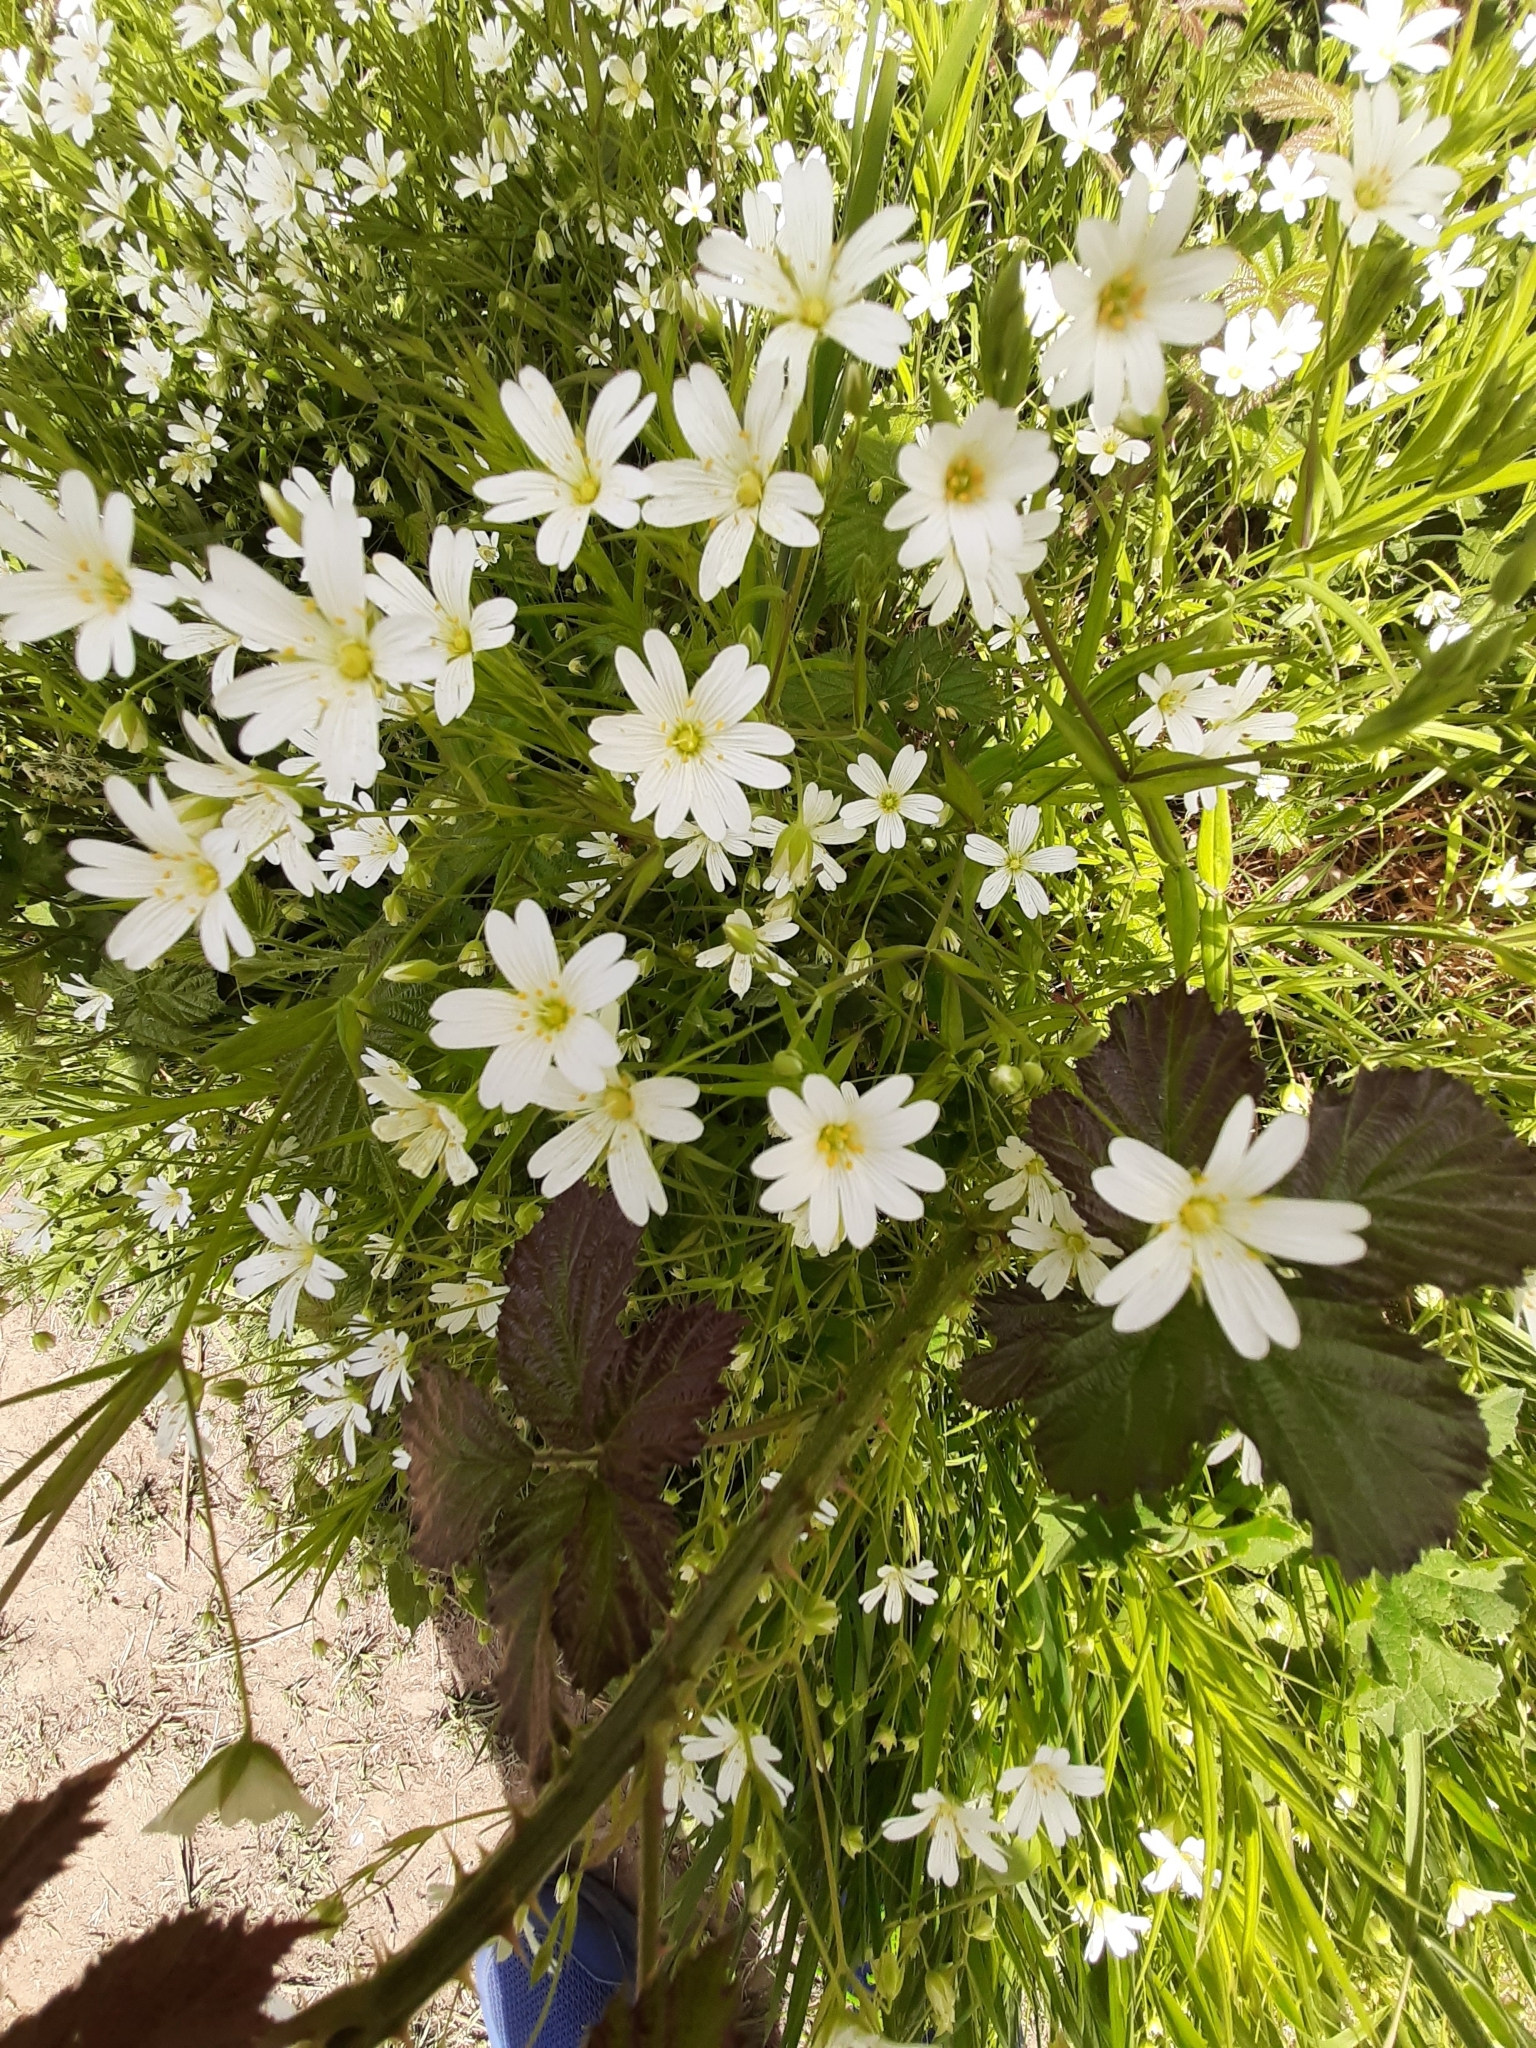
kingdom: Plantae
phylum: Tracheophyta
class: Magnoliopsida
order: Caryophyllales
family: Caryophyllaceae
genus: Rabelera
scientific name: Rabelera holostea
